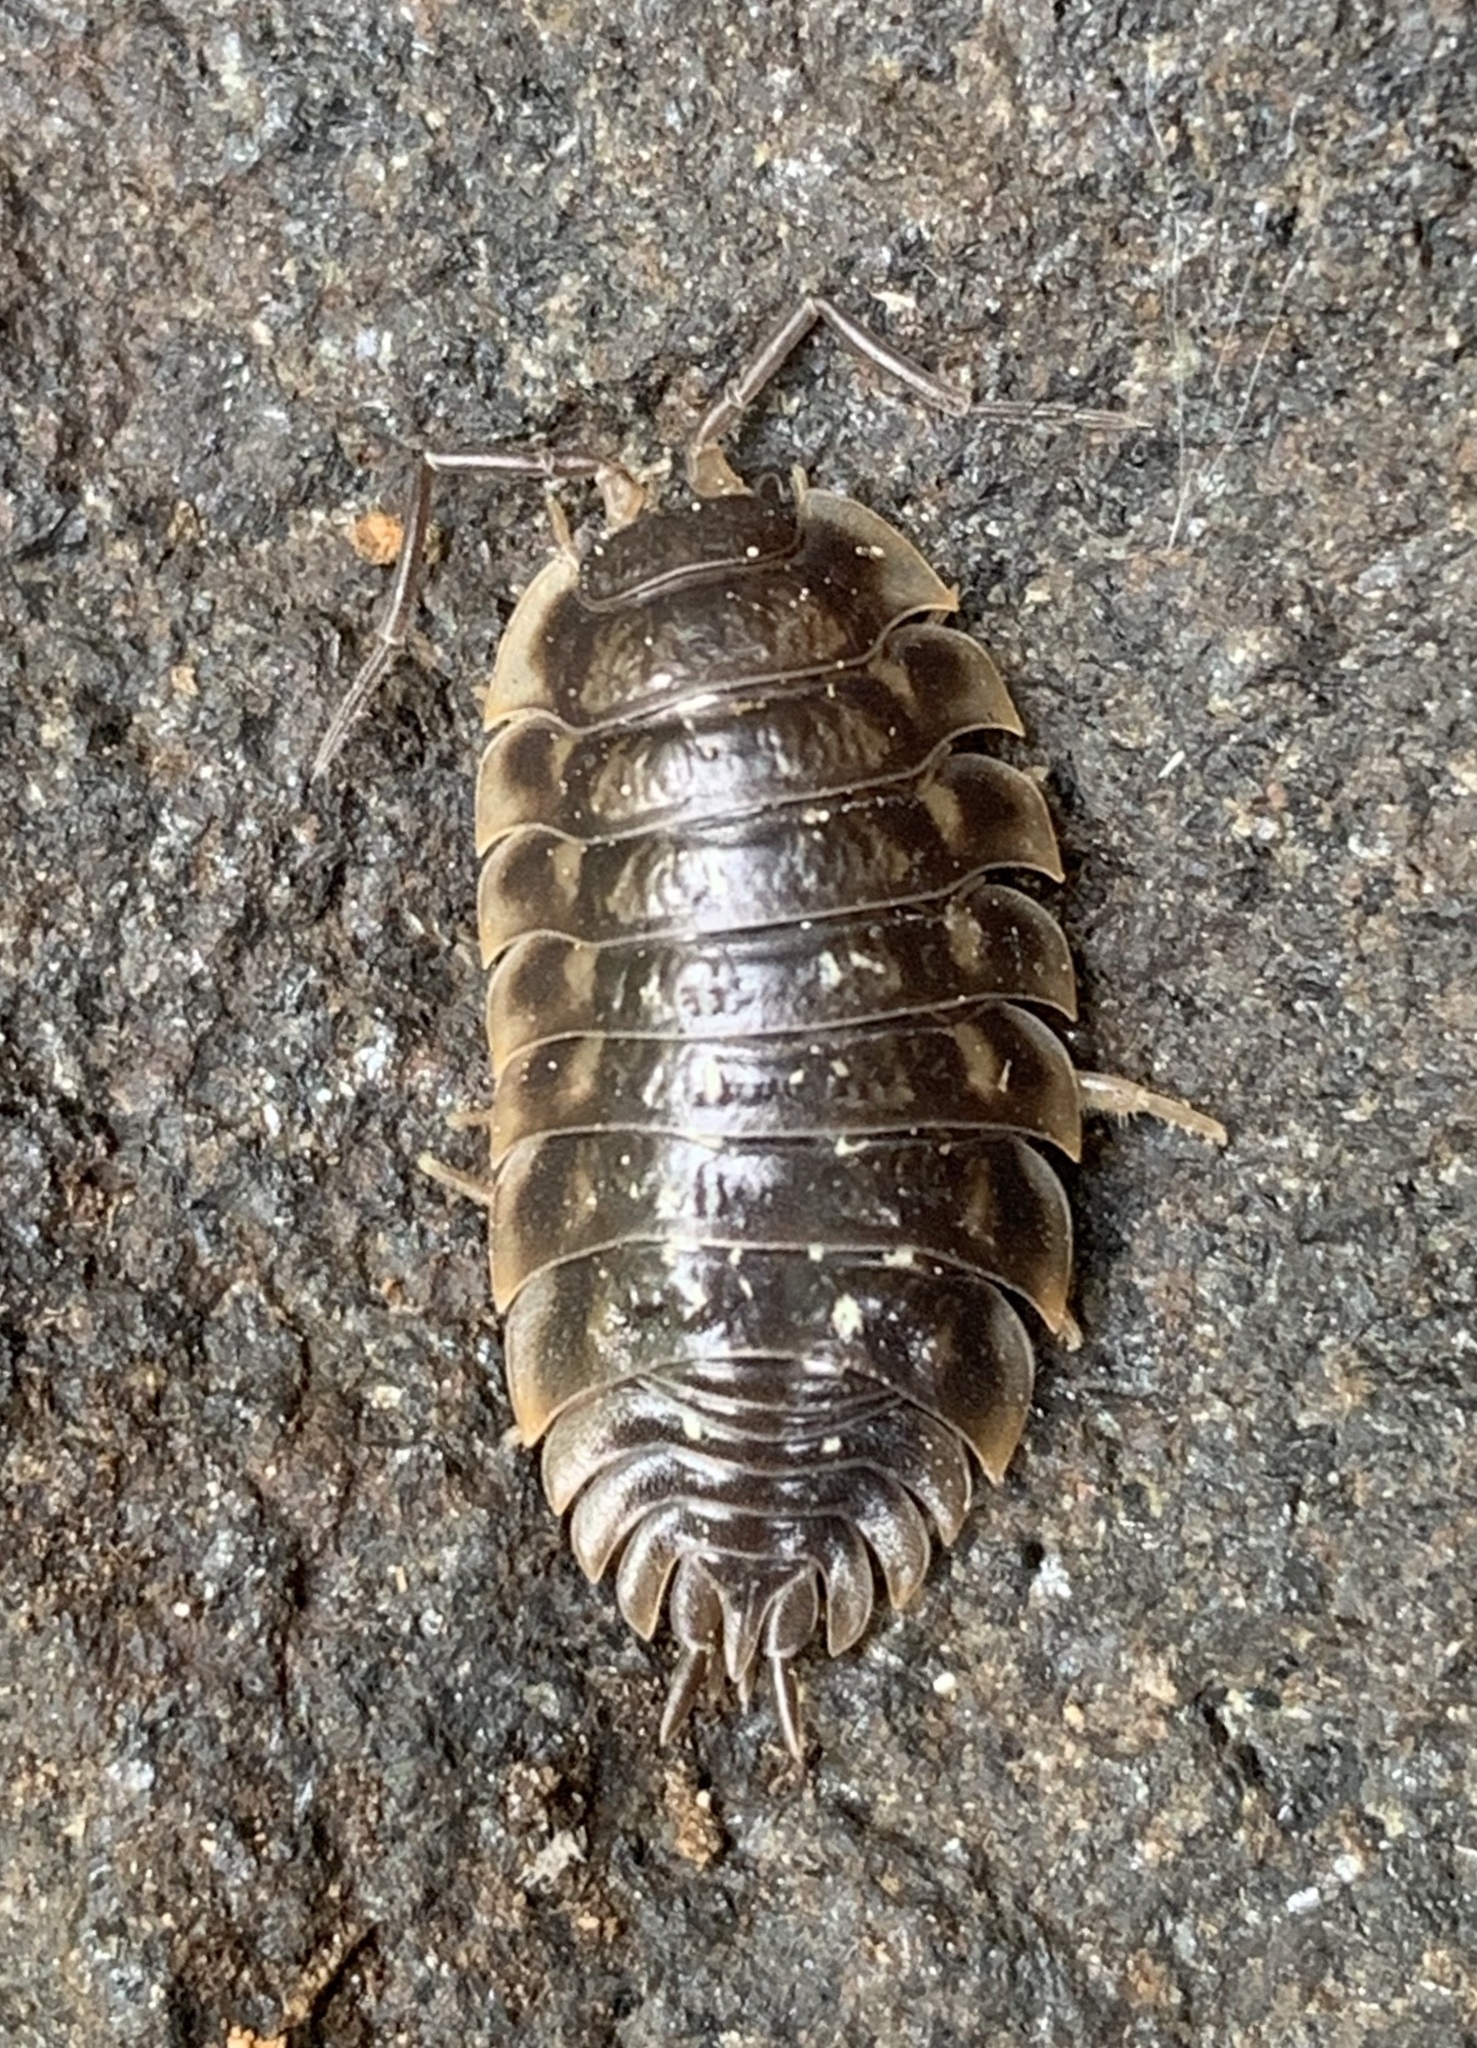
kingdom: Animalia
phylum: Arthropoda
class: Malacostraca
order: Isopoda
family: Oniscidae
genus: Oniscus
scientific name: Oniscus asellus
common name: Common shiny woodlouse
